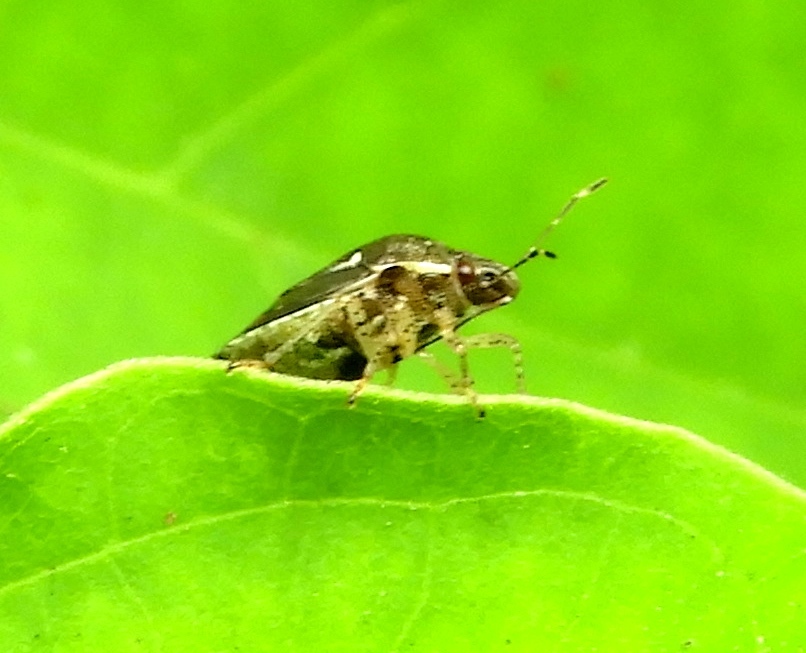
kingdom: Animalia
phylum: Arthropoda
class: Insecta
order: Hemiptera
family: Pentatomidae
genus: Mormidea
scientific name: Mormidea
